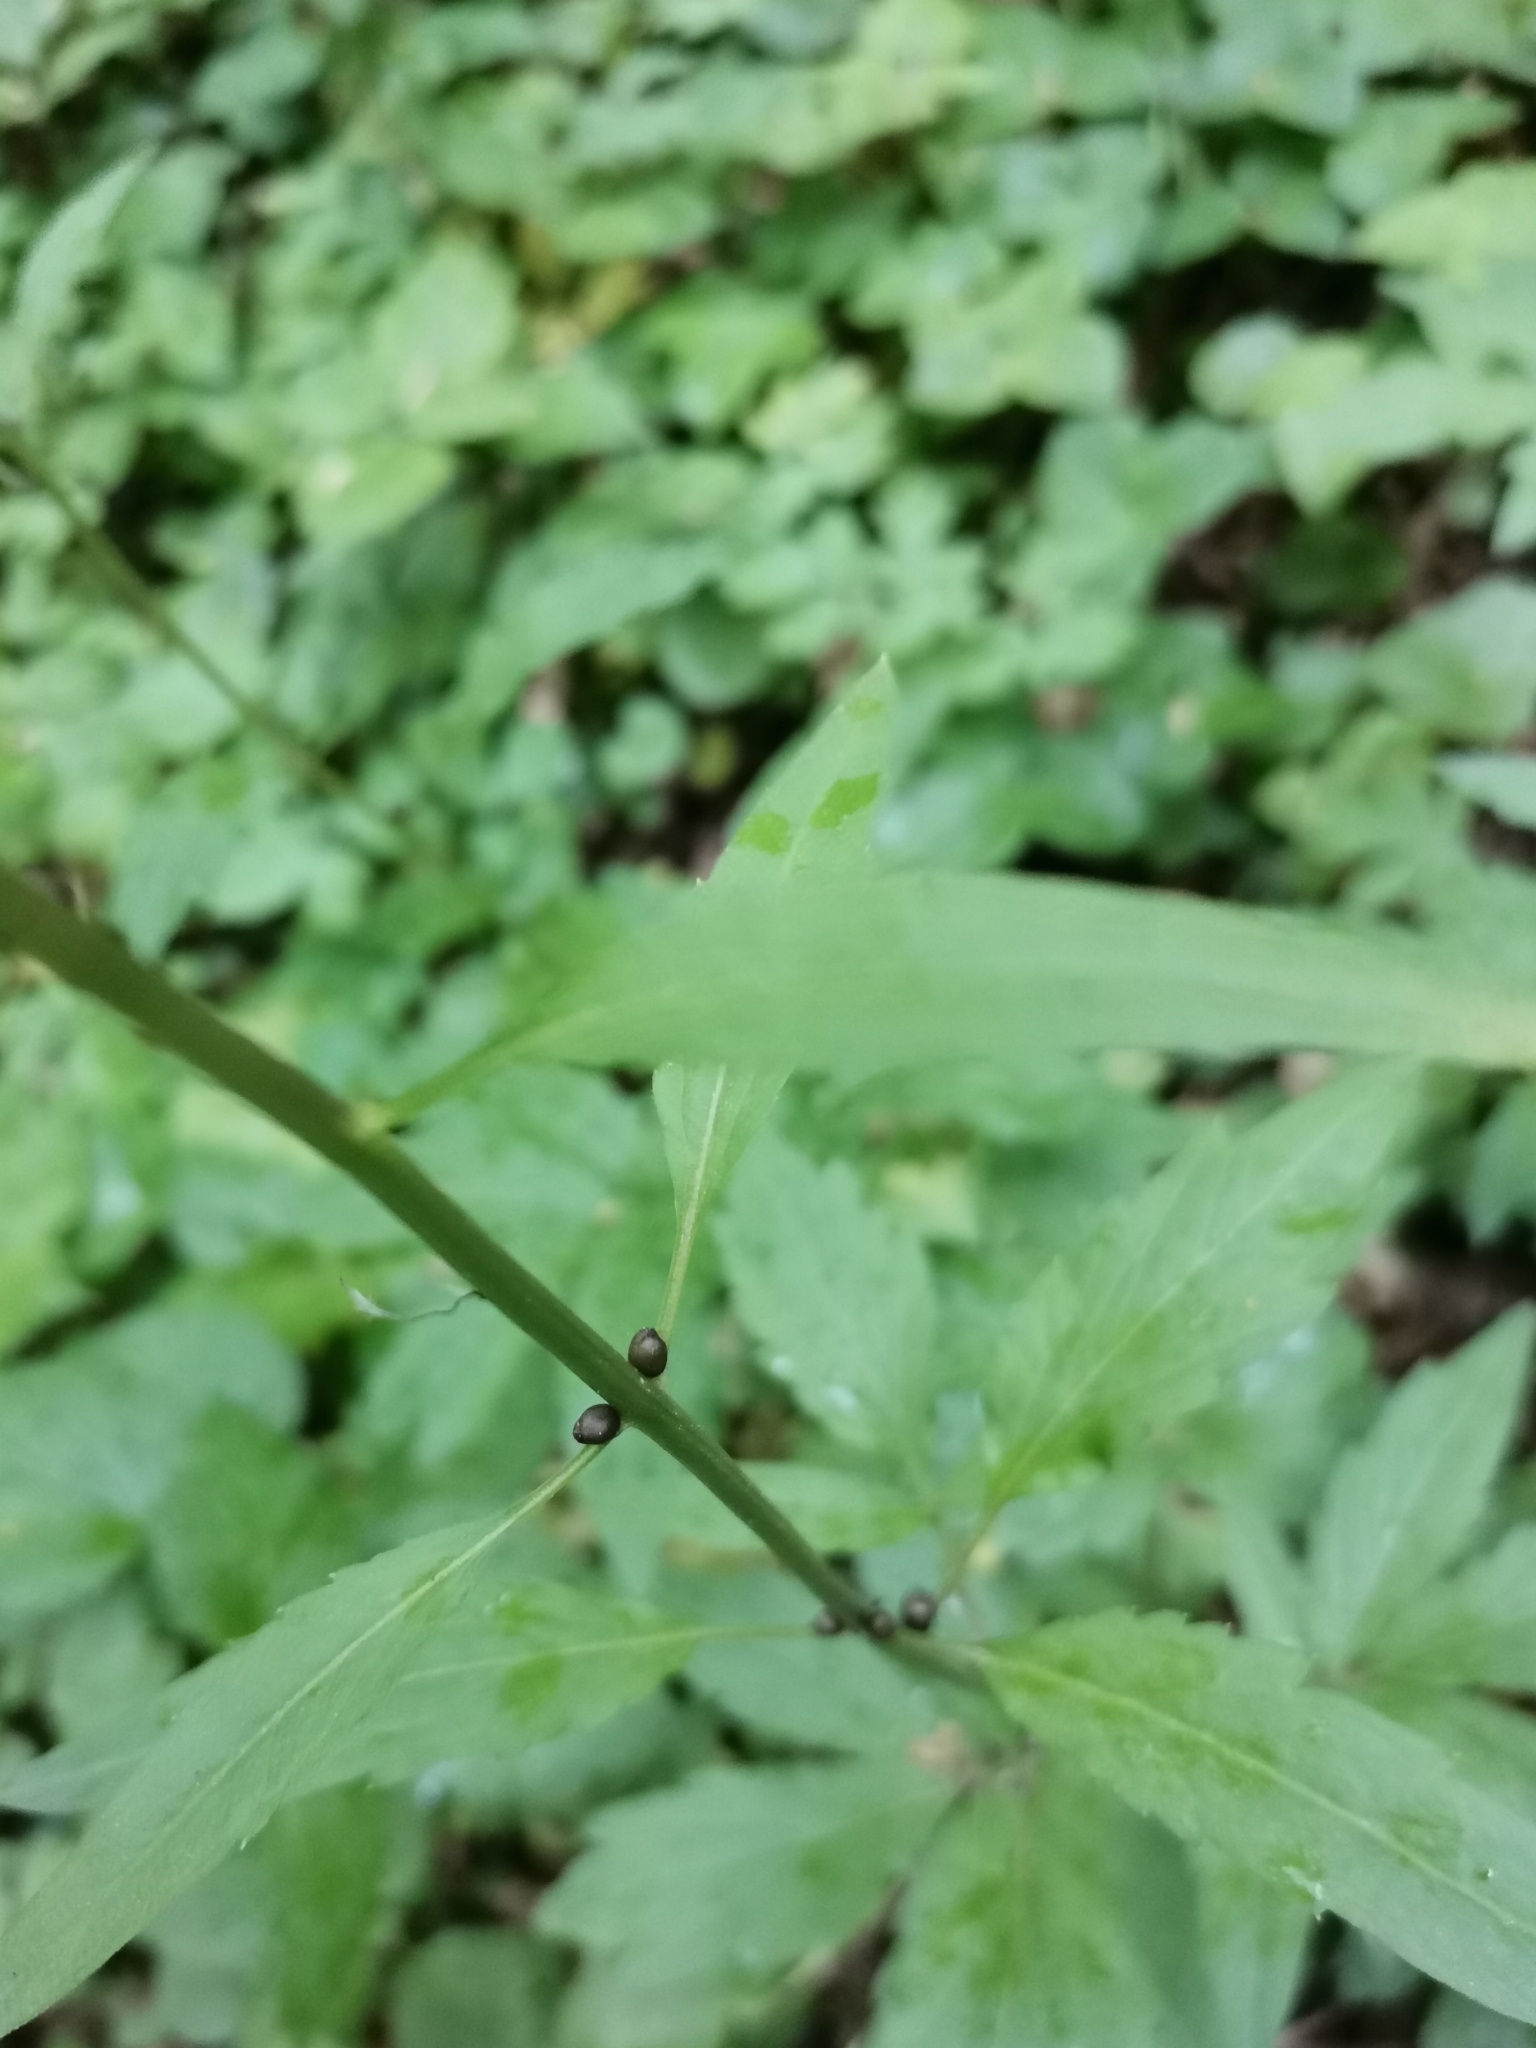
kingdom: Plantae
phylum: Tracheophyta
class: Magnoliopsida
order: Brassicales
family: Brassicaceae
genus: Cardamine
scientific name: Cardamine bulbifera
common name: Coralroot bittercress
